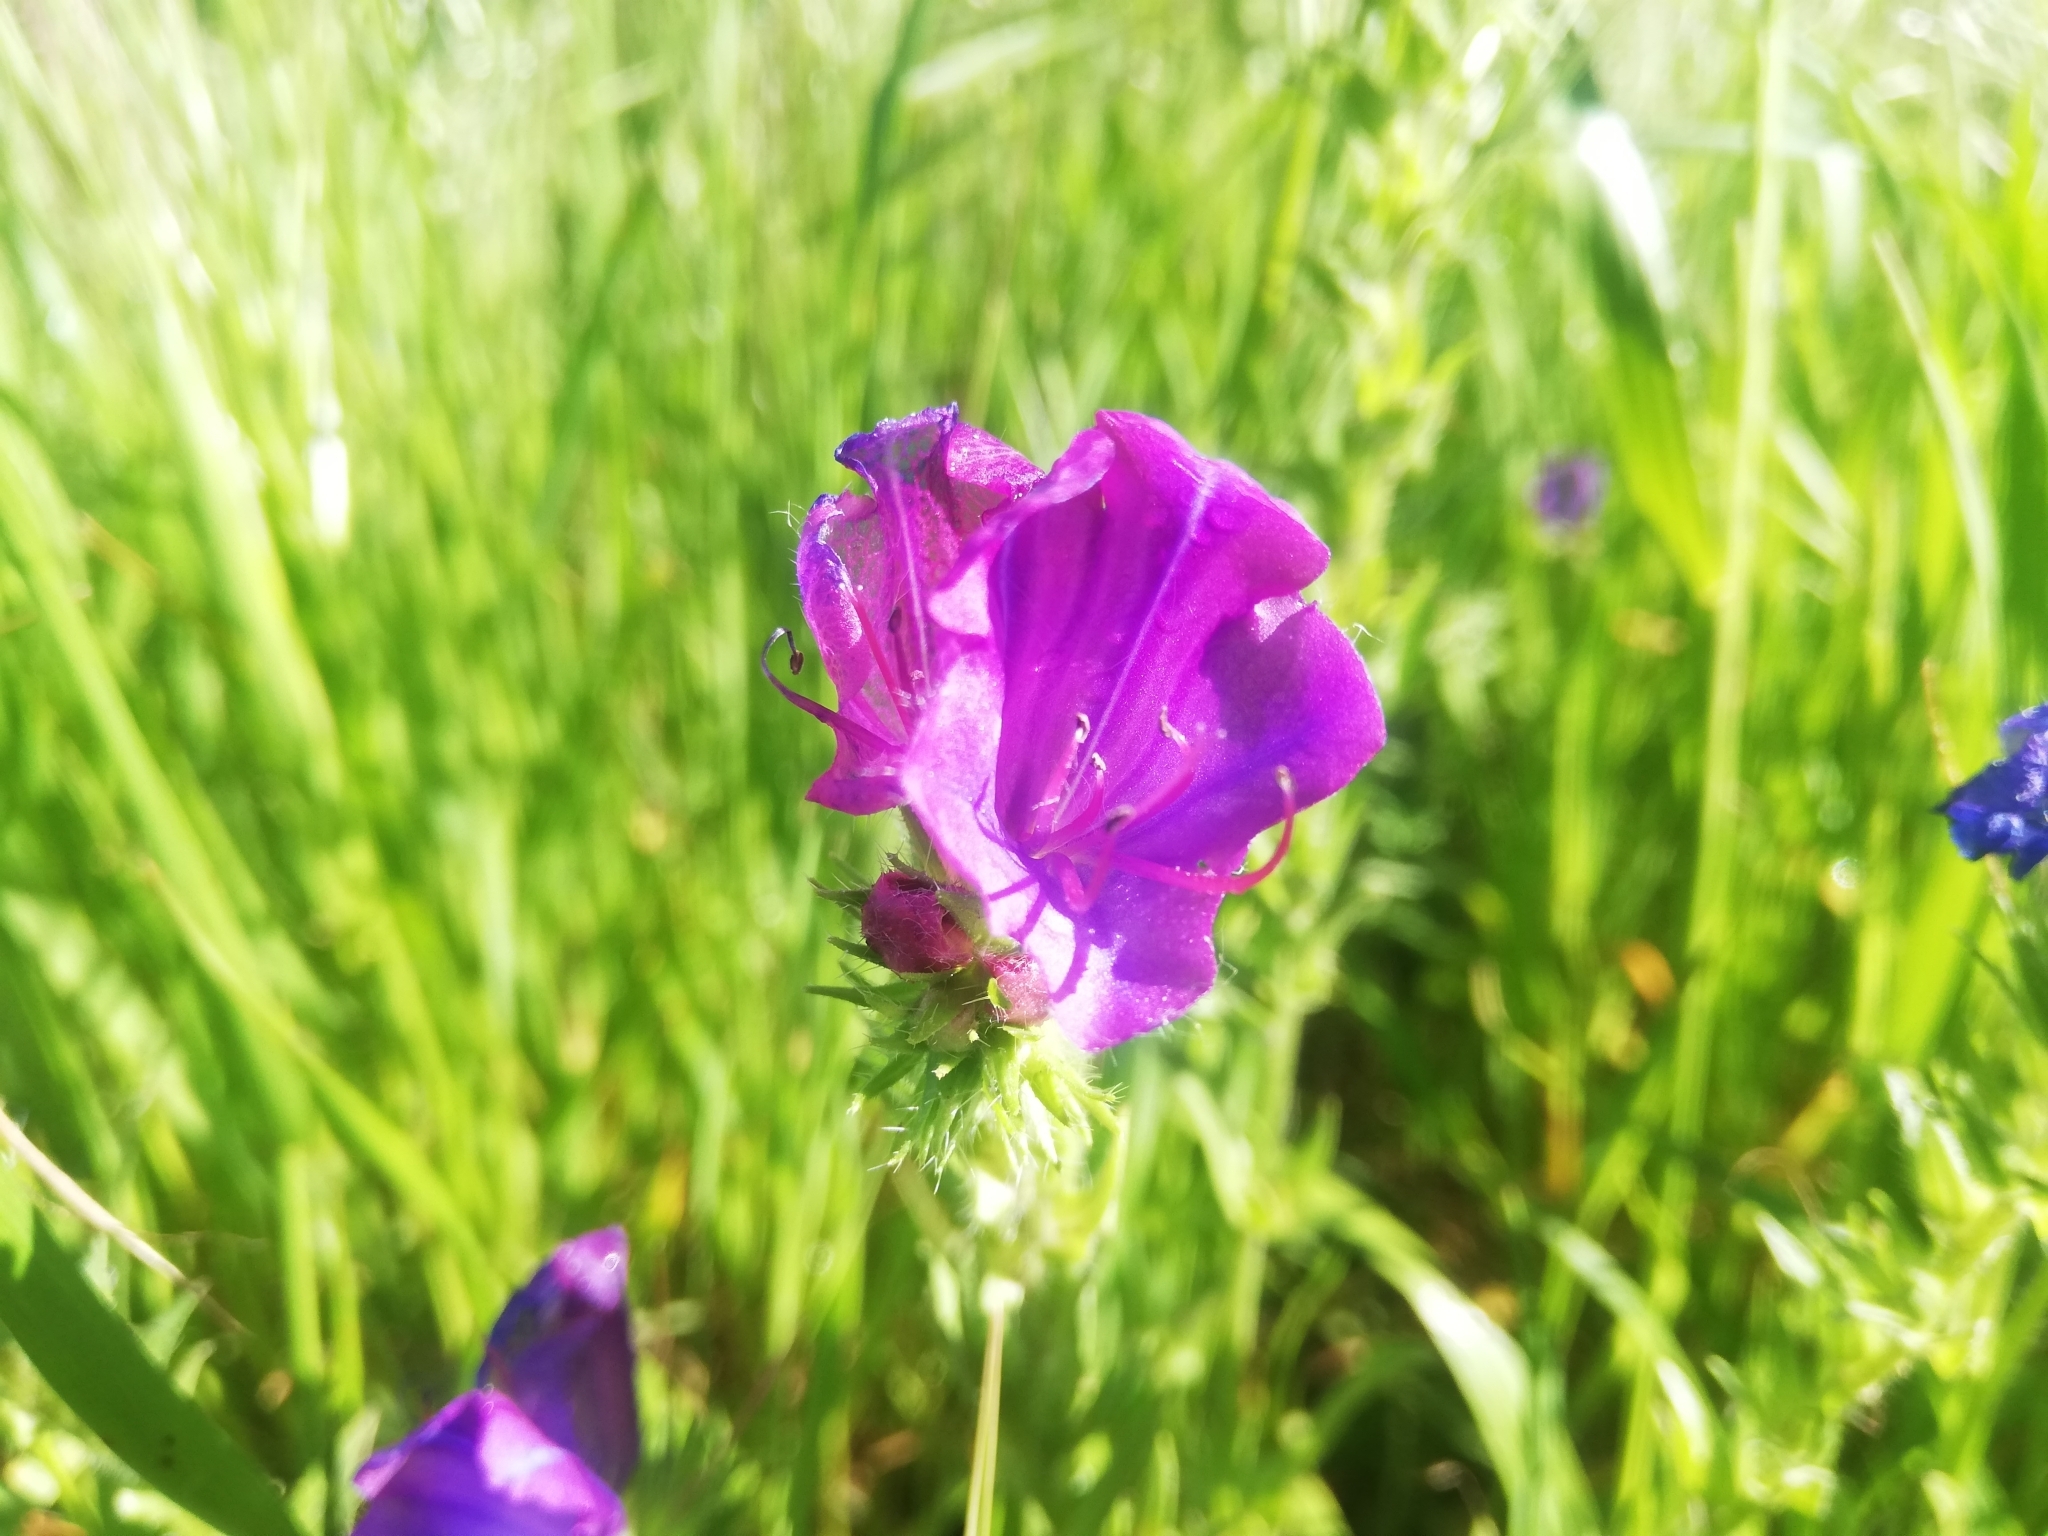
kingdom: Plantae
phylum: Tracheophyta
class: Magnoliopsida
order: Boraginales
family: Boraginaceae
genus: Echium
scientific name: Echium plantagineum
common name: Purple viper's-bugloss
